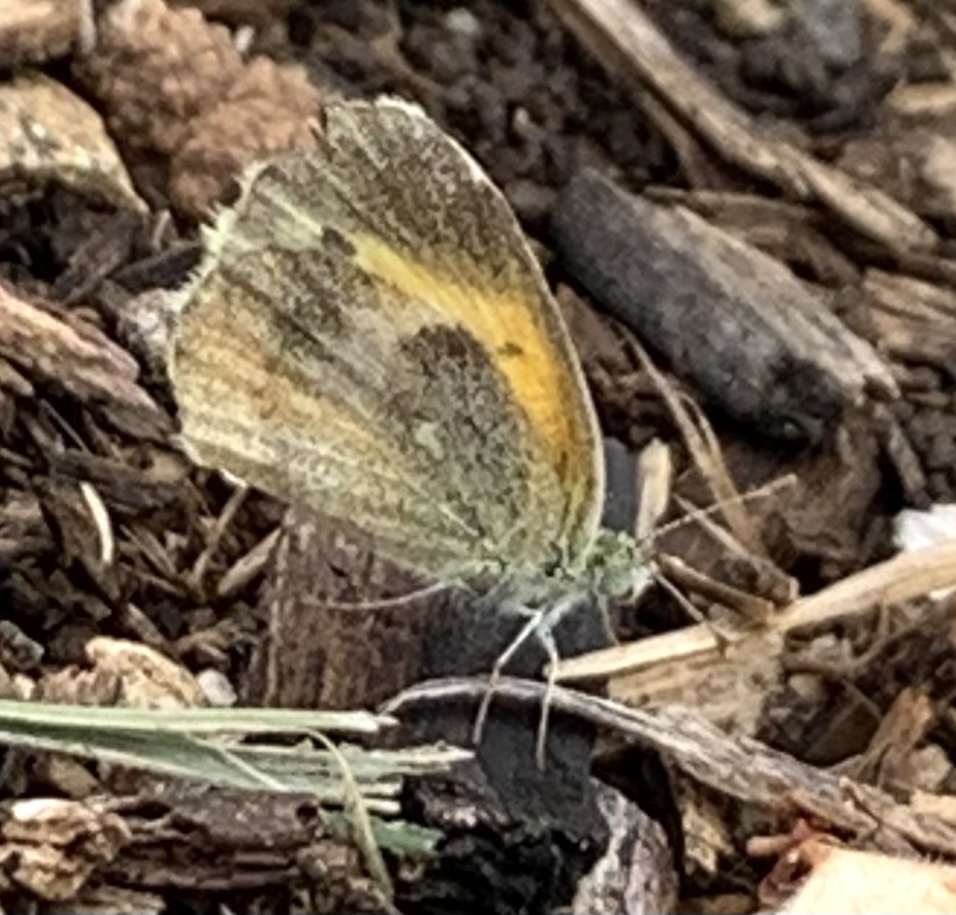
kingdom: Animalia
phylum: Arthropoda
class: Insecta
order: Lepidoptera
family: Pieridae
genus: Nathalis
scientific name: Nathalis iole
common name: Dainty sulphur
